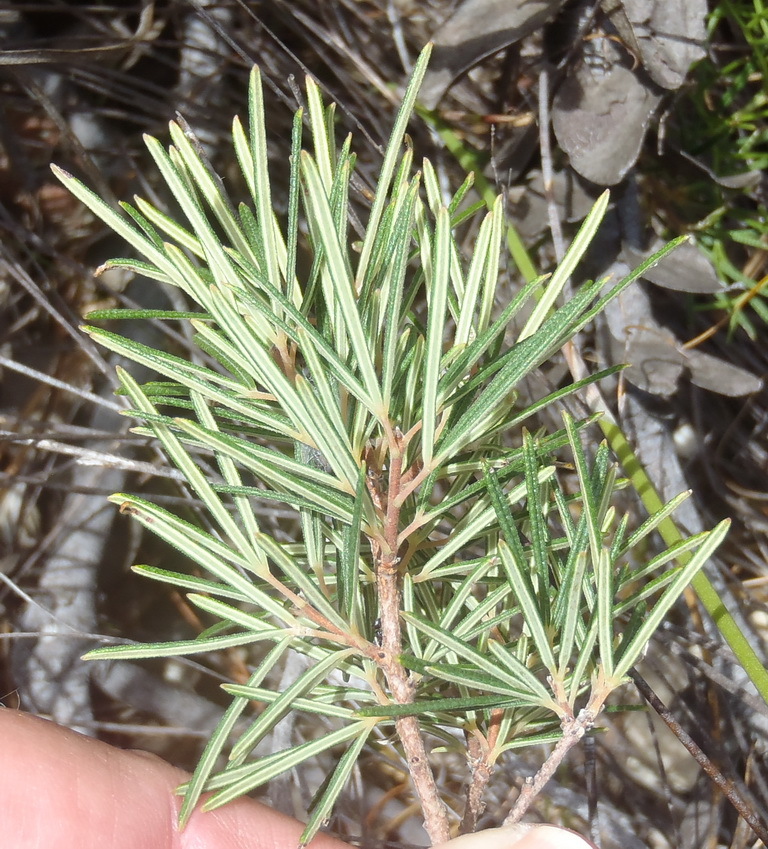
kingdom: Plantae
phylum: Tracheophyta
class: Magnoliopsida
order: Sapindales
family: Anacardiaceae
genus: Searsia
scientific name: Searsia rosmarinifolia
